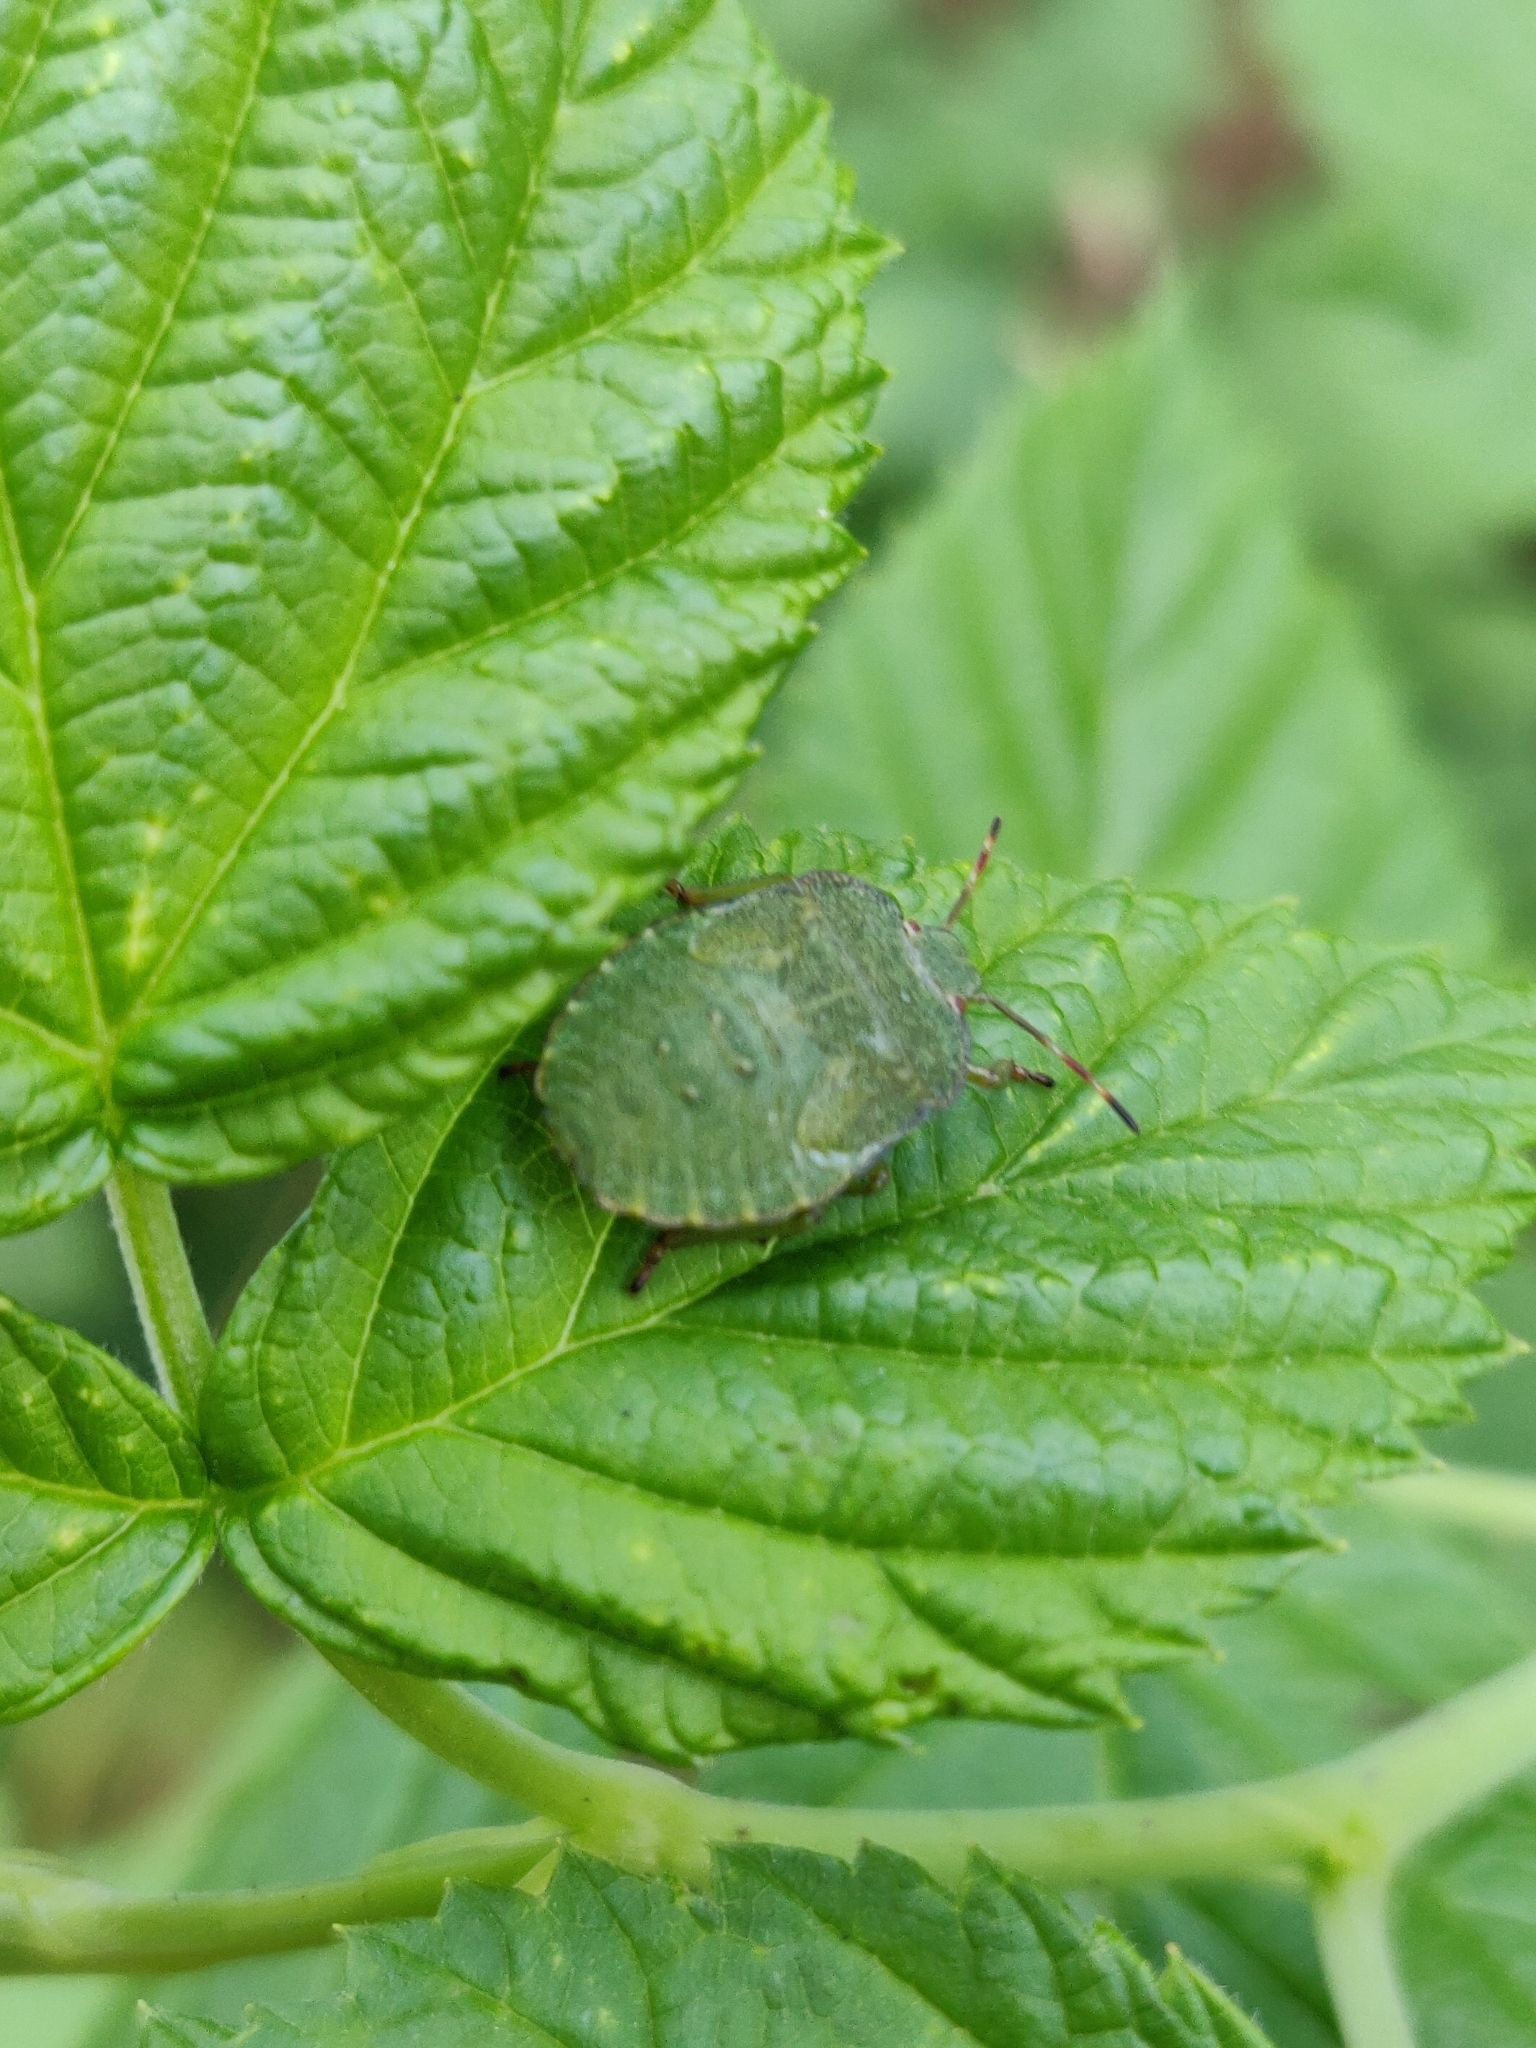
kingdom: Animalia
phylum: Arthropoda
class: Insecta
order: Hemiptera
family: Pentatomidae
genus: Palomena
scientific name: Palomena prasina
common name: Green shieldbug
